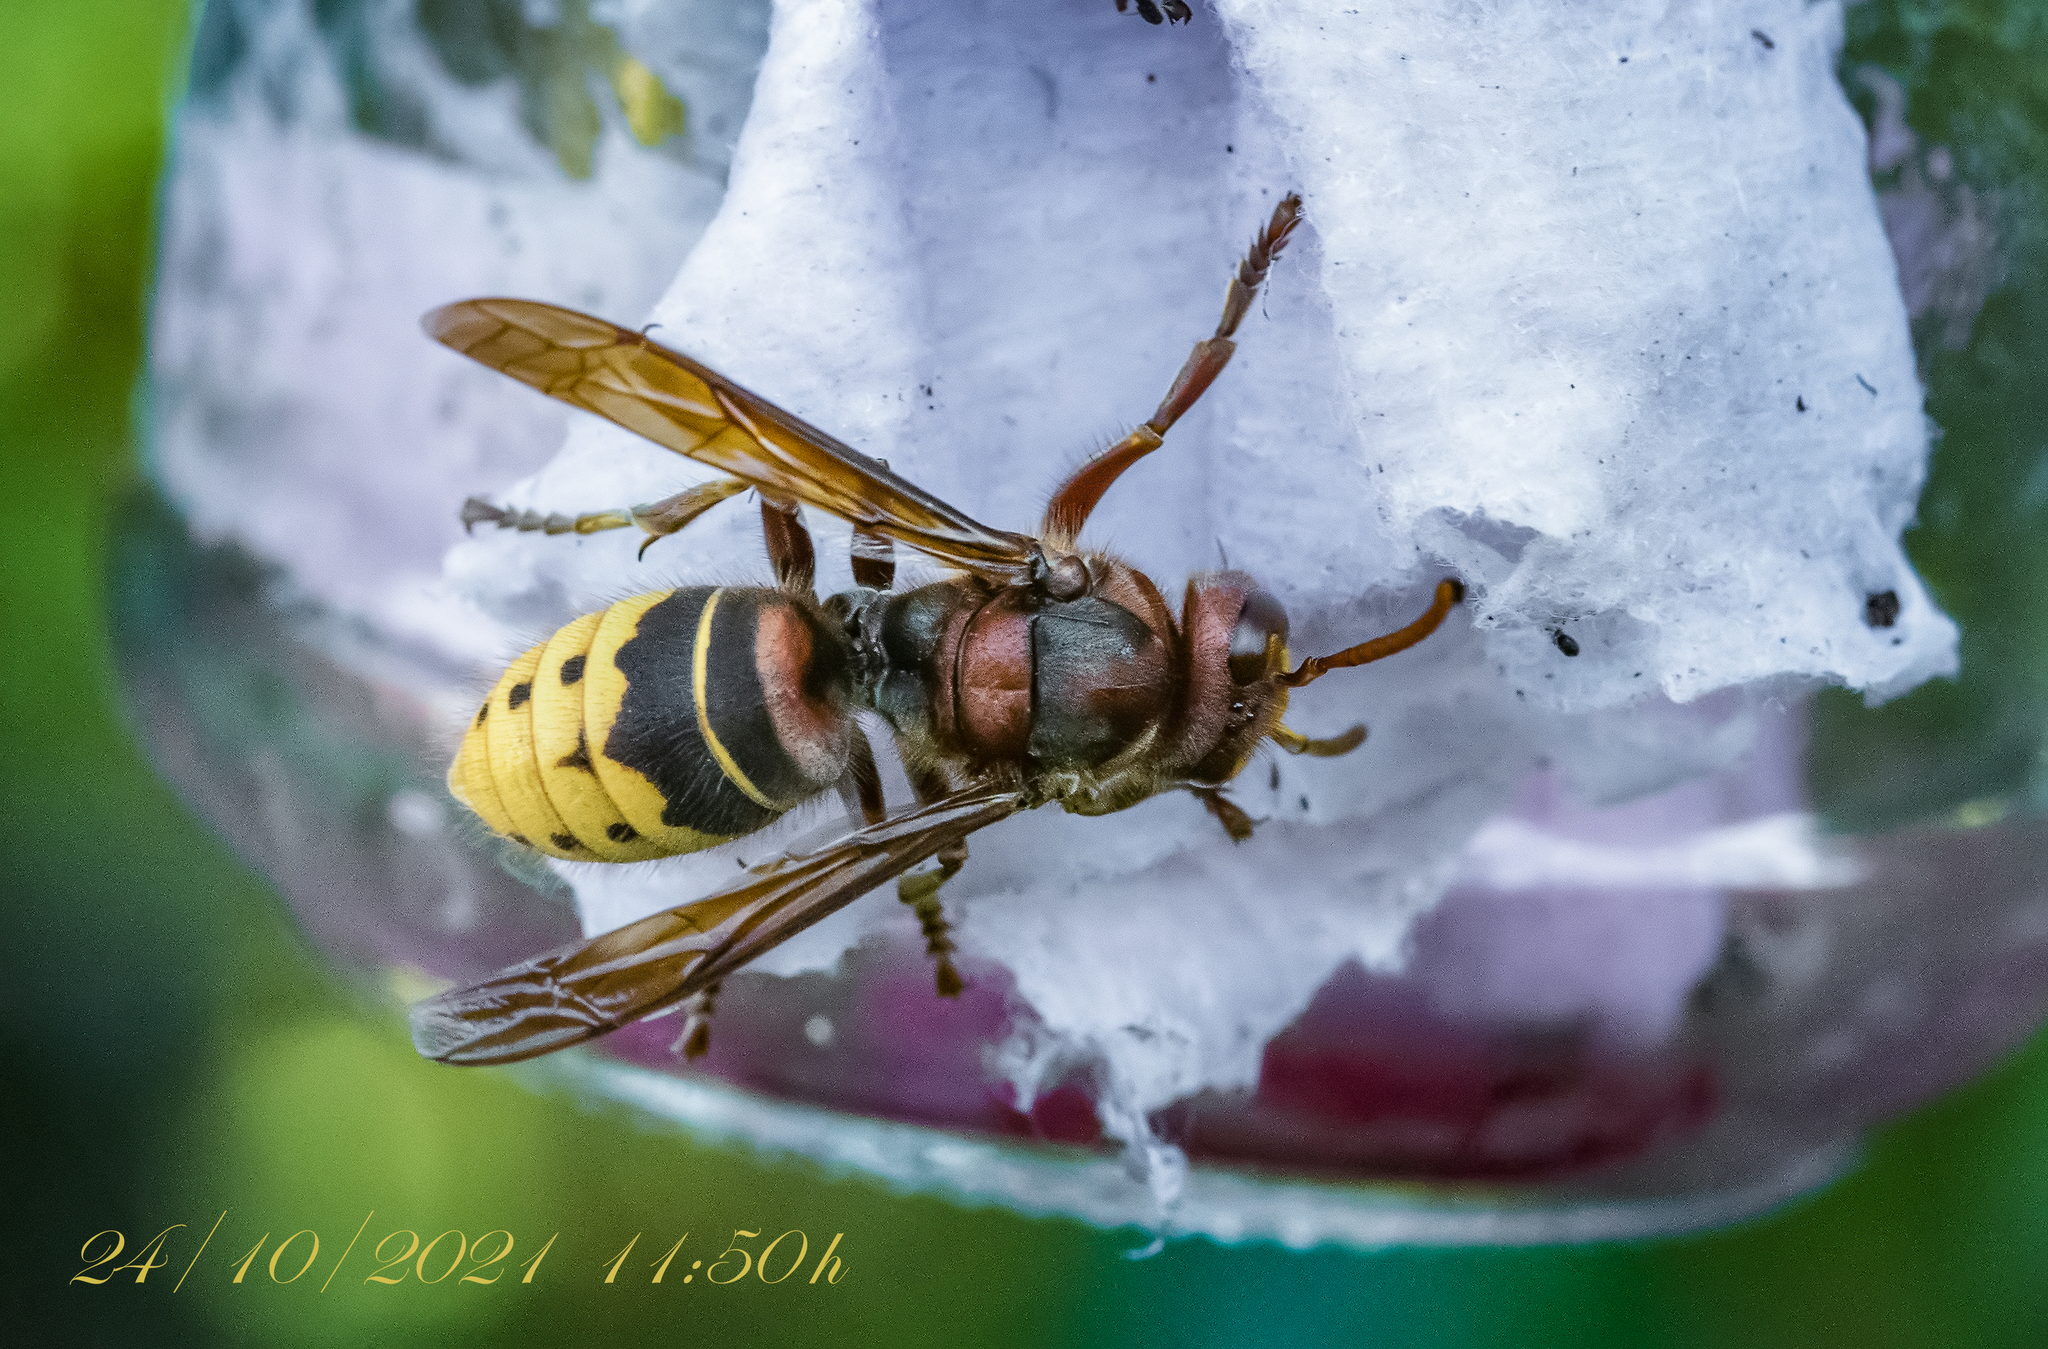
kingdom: Animalia
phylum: Arthropoda
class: Insecta
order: Hymenoptera
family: Vespidae
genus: Vespa
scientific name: Vespa crabro
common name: Hornet
